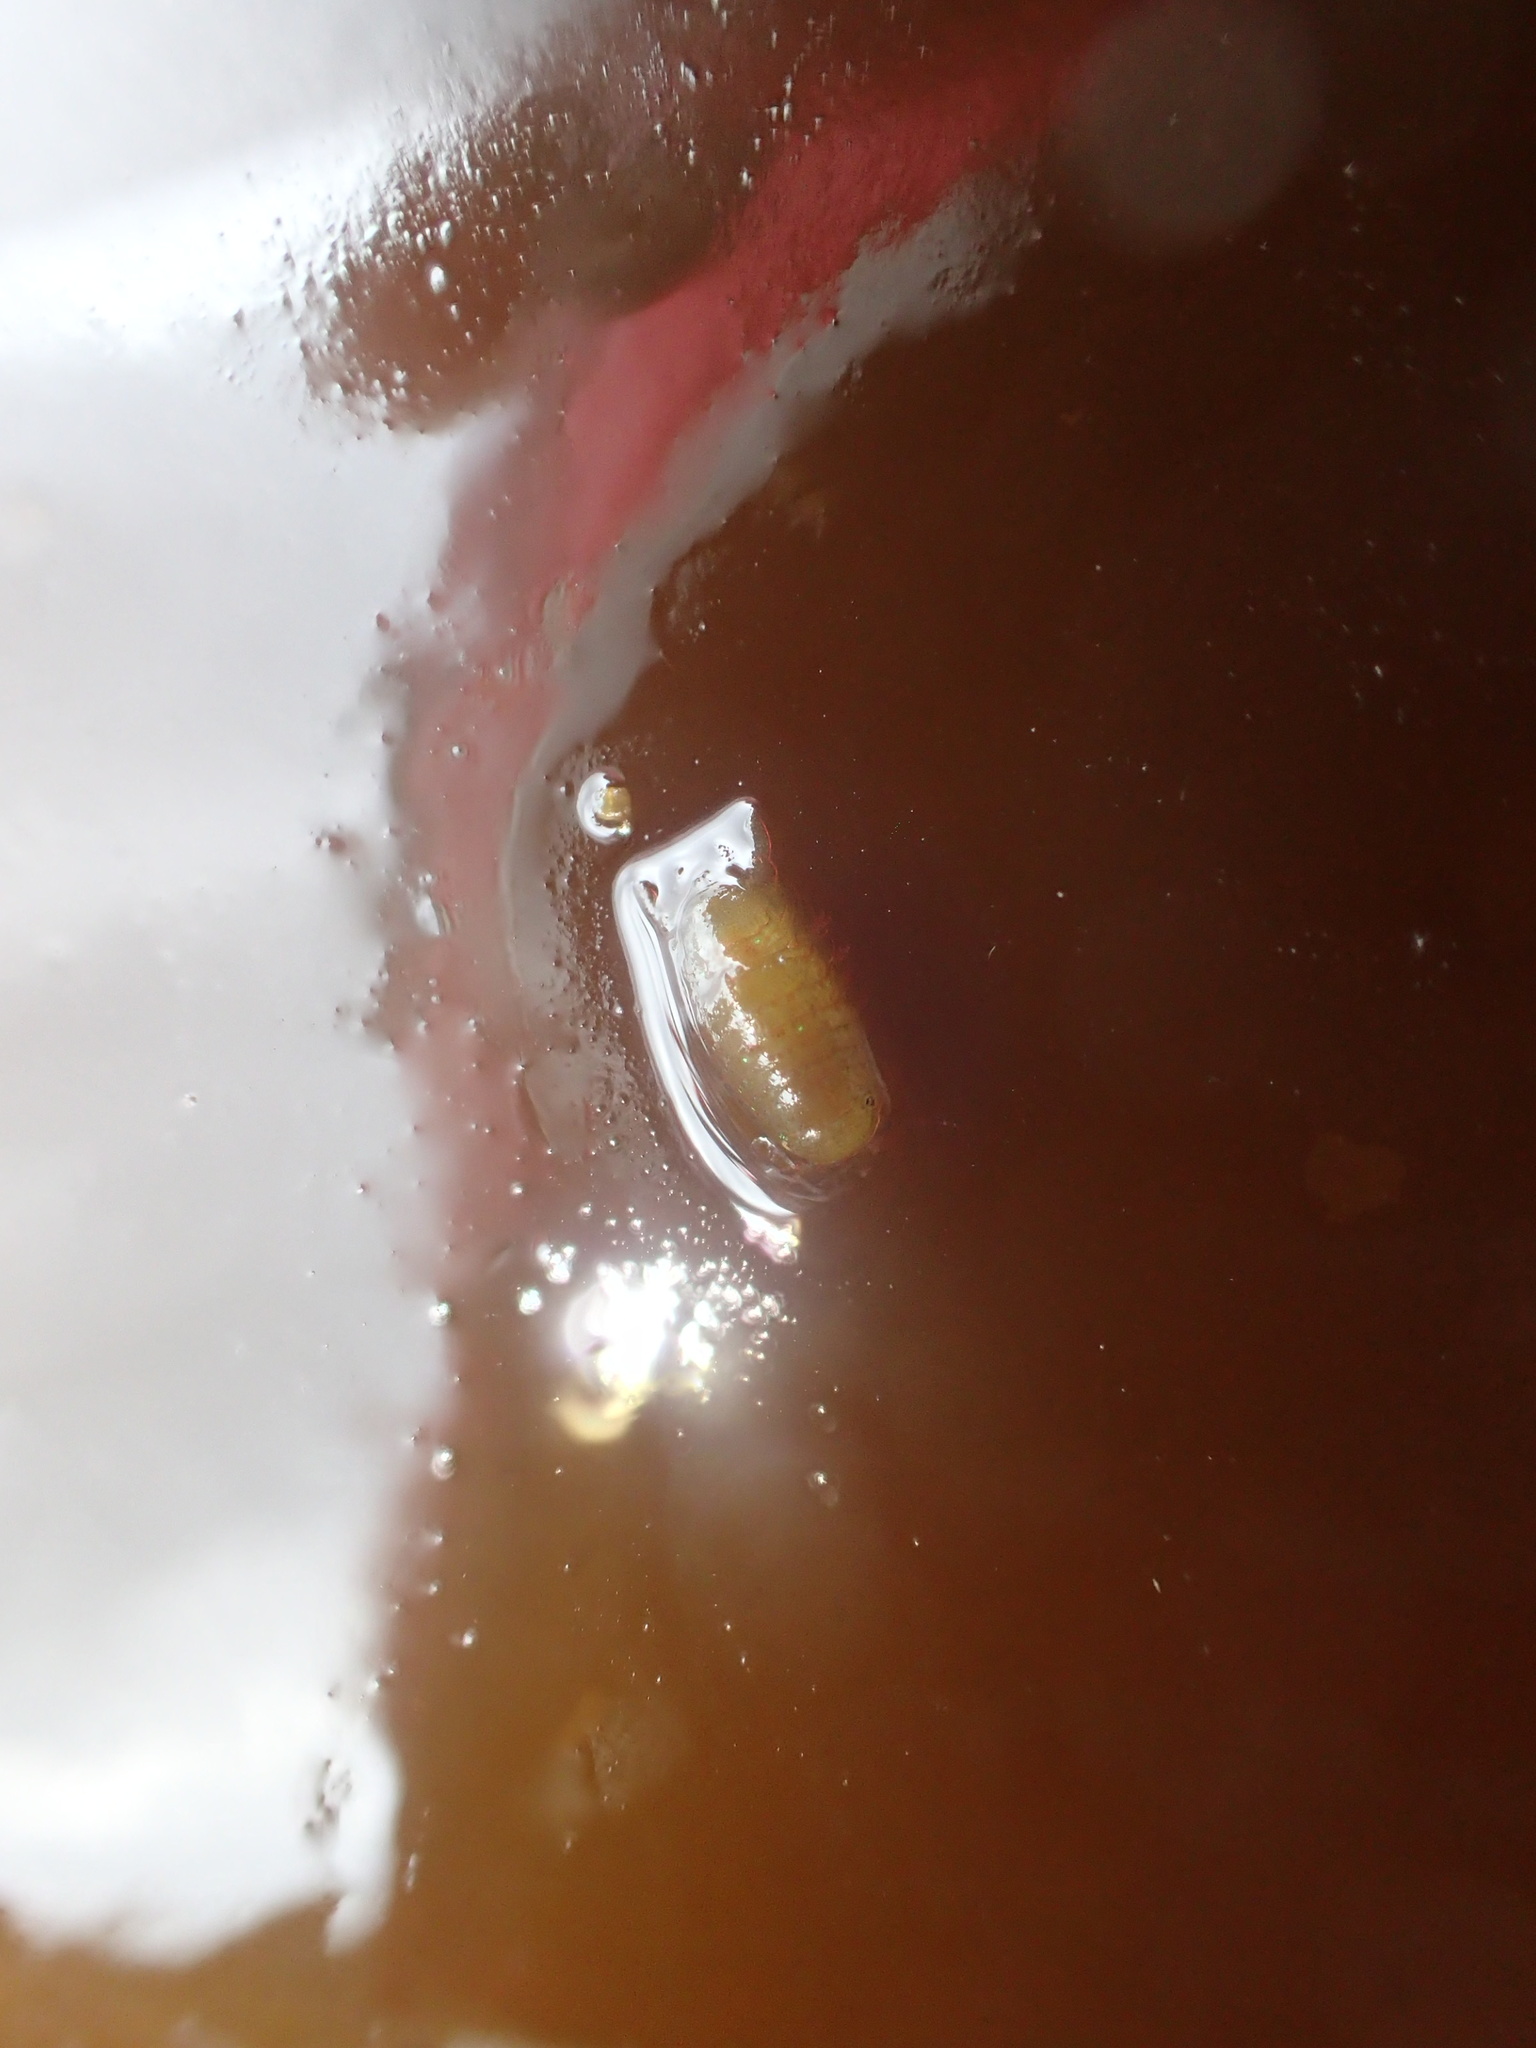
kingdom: Animalia
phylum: Arthropoda
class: Malacostraca
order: Isopoda
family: Sphaeromatidae
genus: Dynamene
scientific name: Dynamene bidentata
